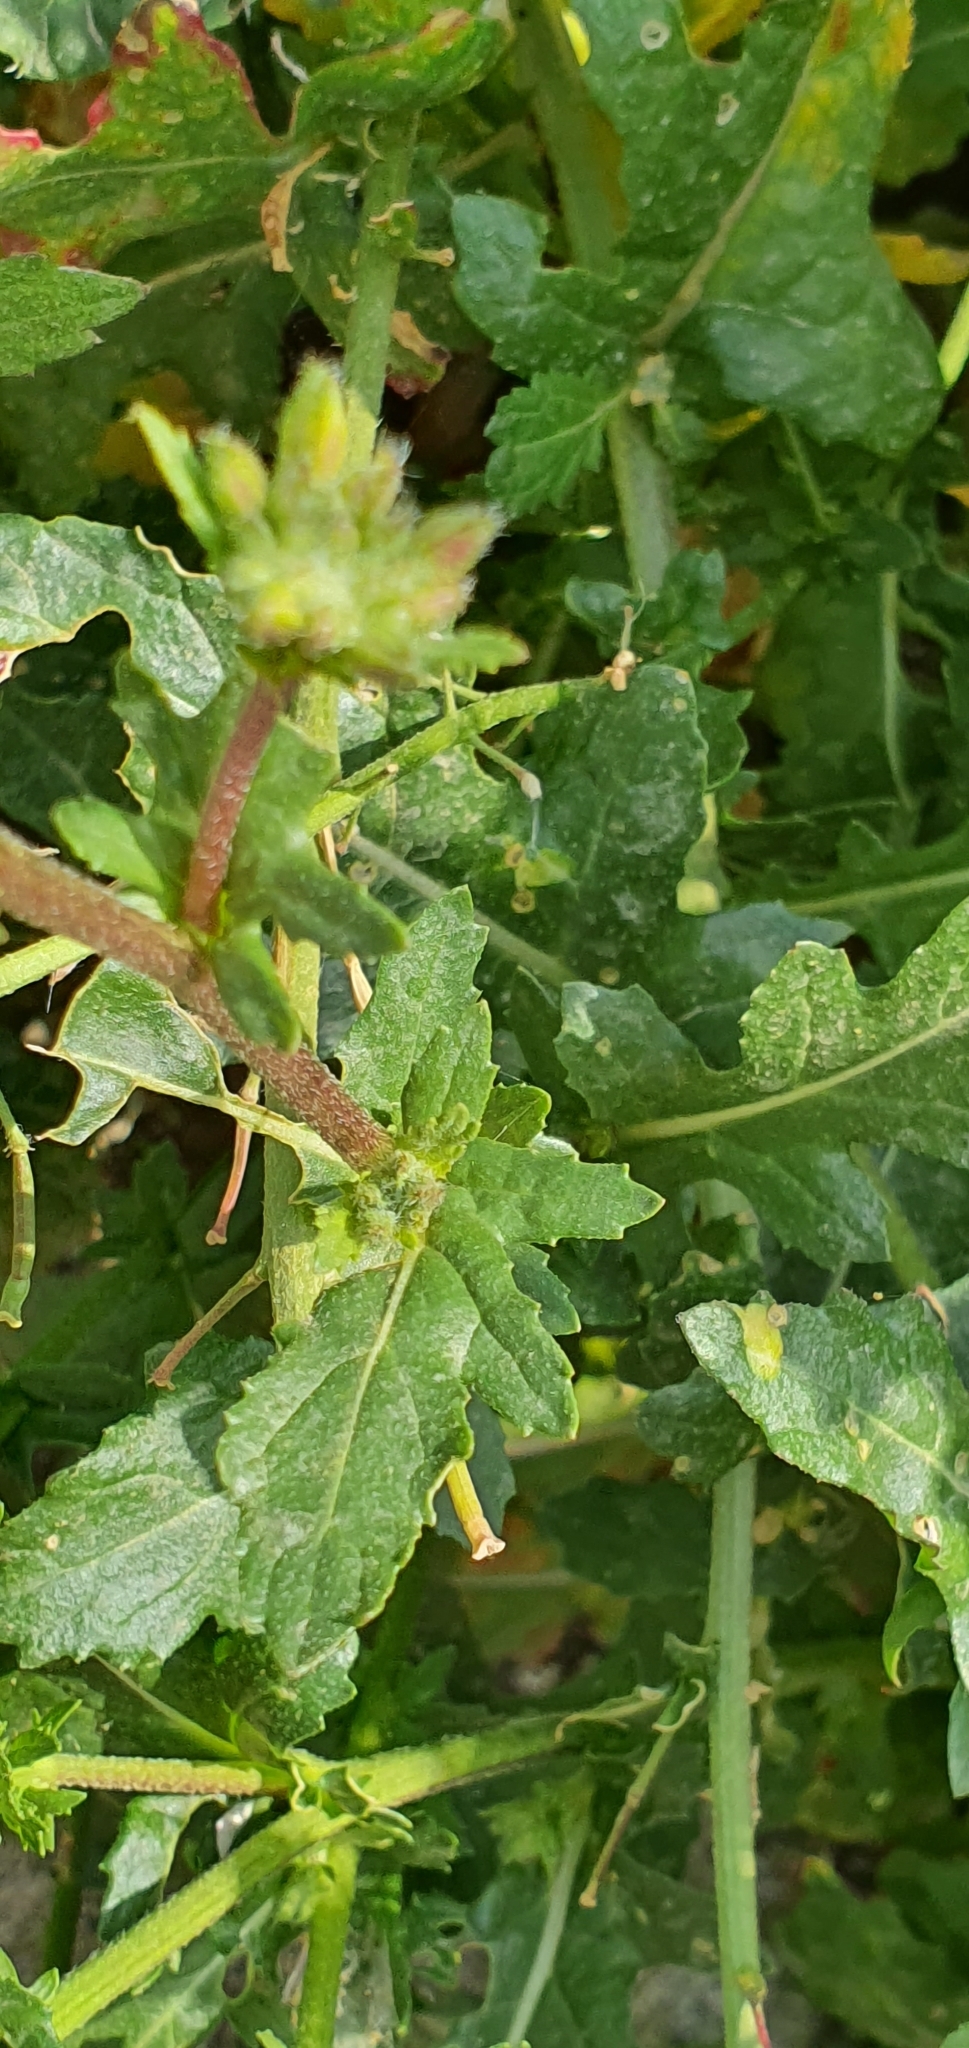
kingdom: Plantae
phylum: Tracheophyta
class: Magnoliopsida
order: Brassicales
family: Brassicaceae
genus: Diplotaxis
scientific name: Diplotaxis erucoides
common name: White rocket
